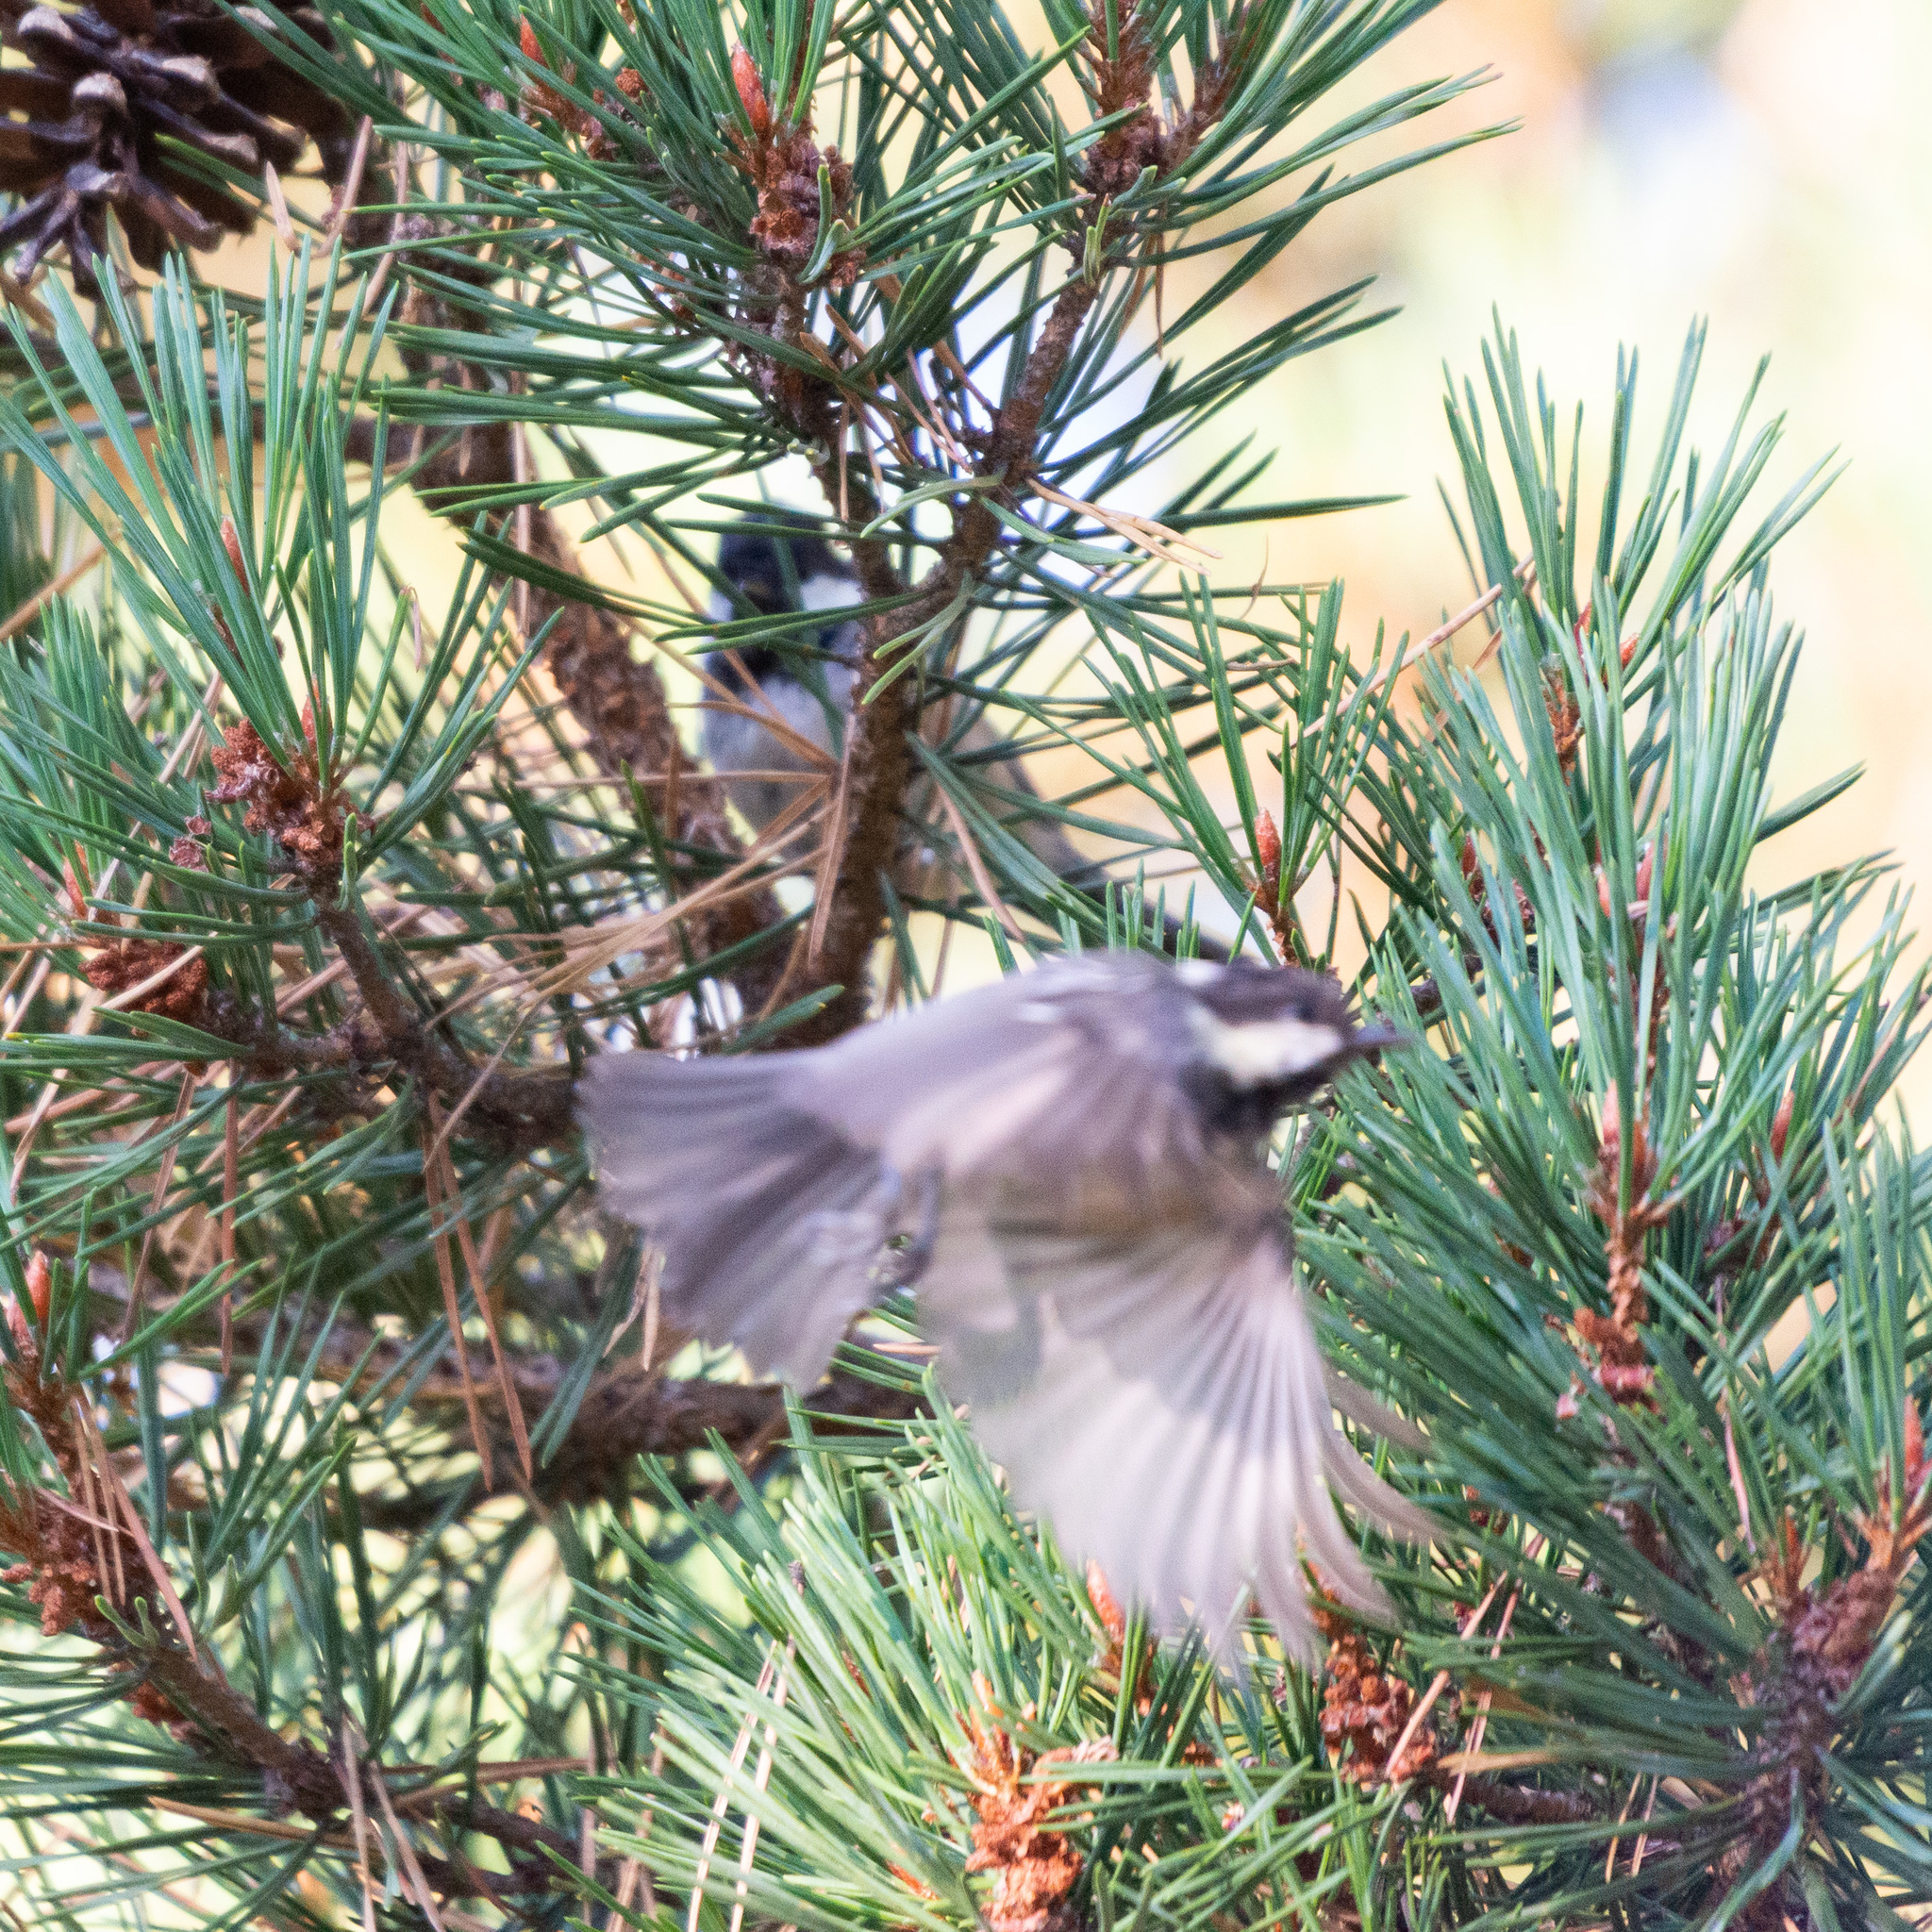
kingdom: Animalia
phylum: Chordata
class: Aves
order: Passeriformes
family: Paridae
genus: Periparus
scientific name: Periparus ater
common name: Coal tit
